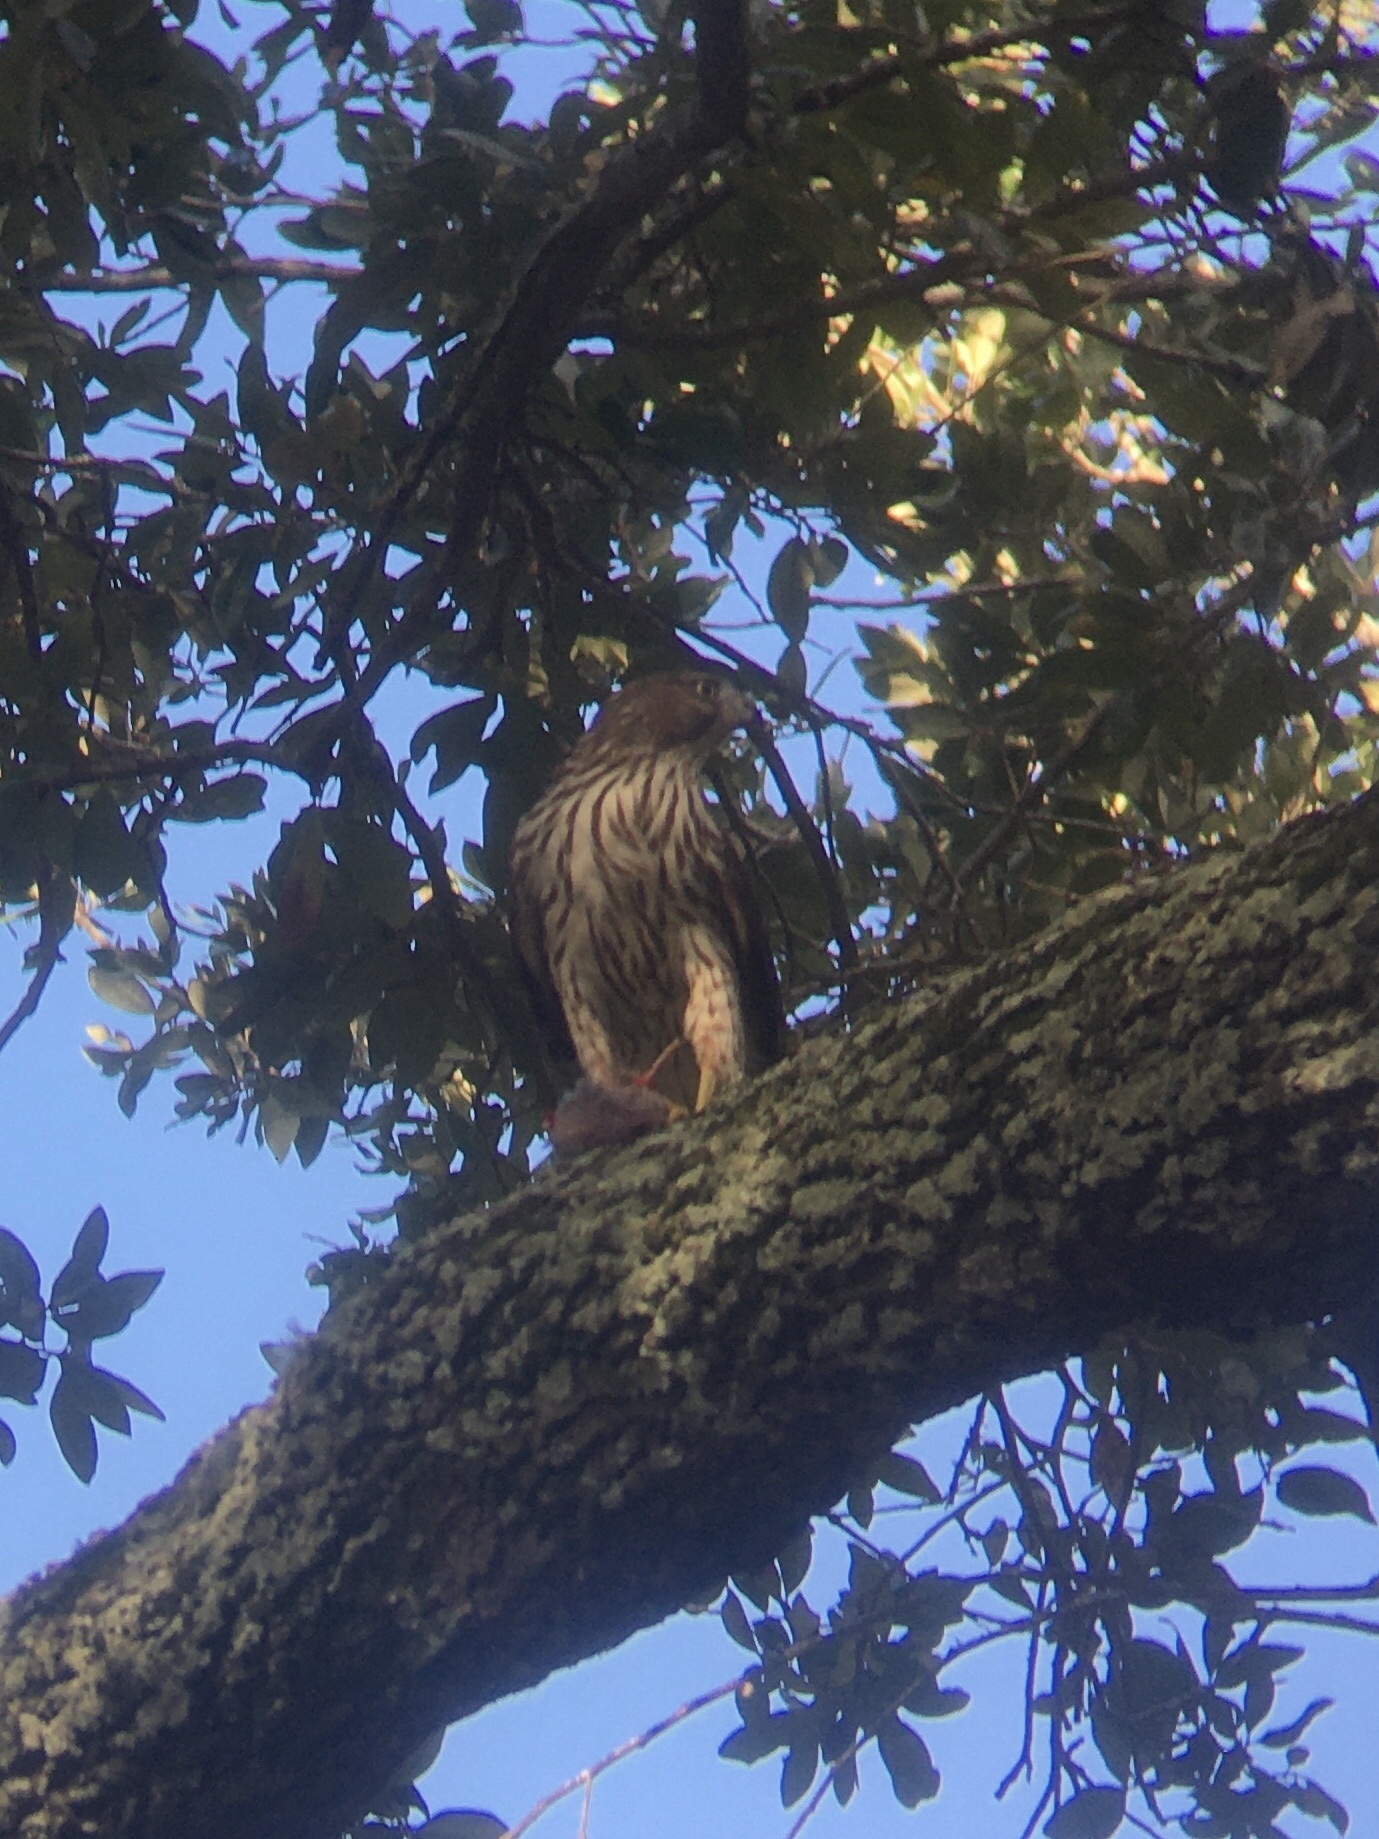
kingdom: Animalia
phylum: Chordata
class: Aves
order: Accipitriformes
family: Accipitridae
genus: Accipiter
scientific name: Accipiter cooperii
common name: Cooper's hawk
